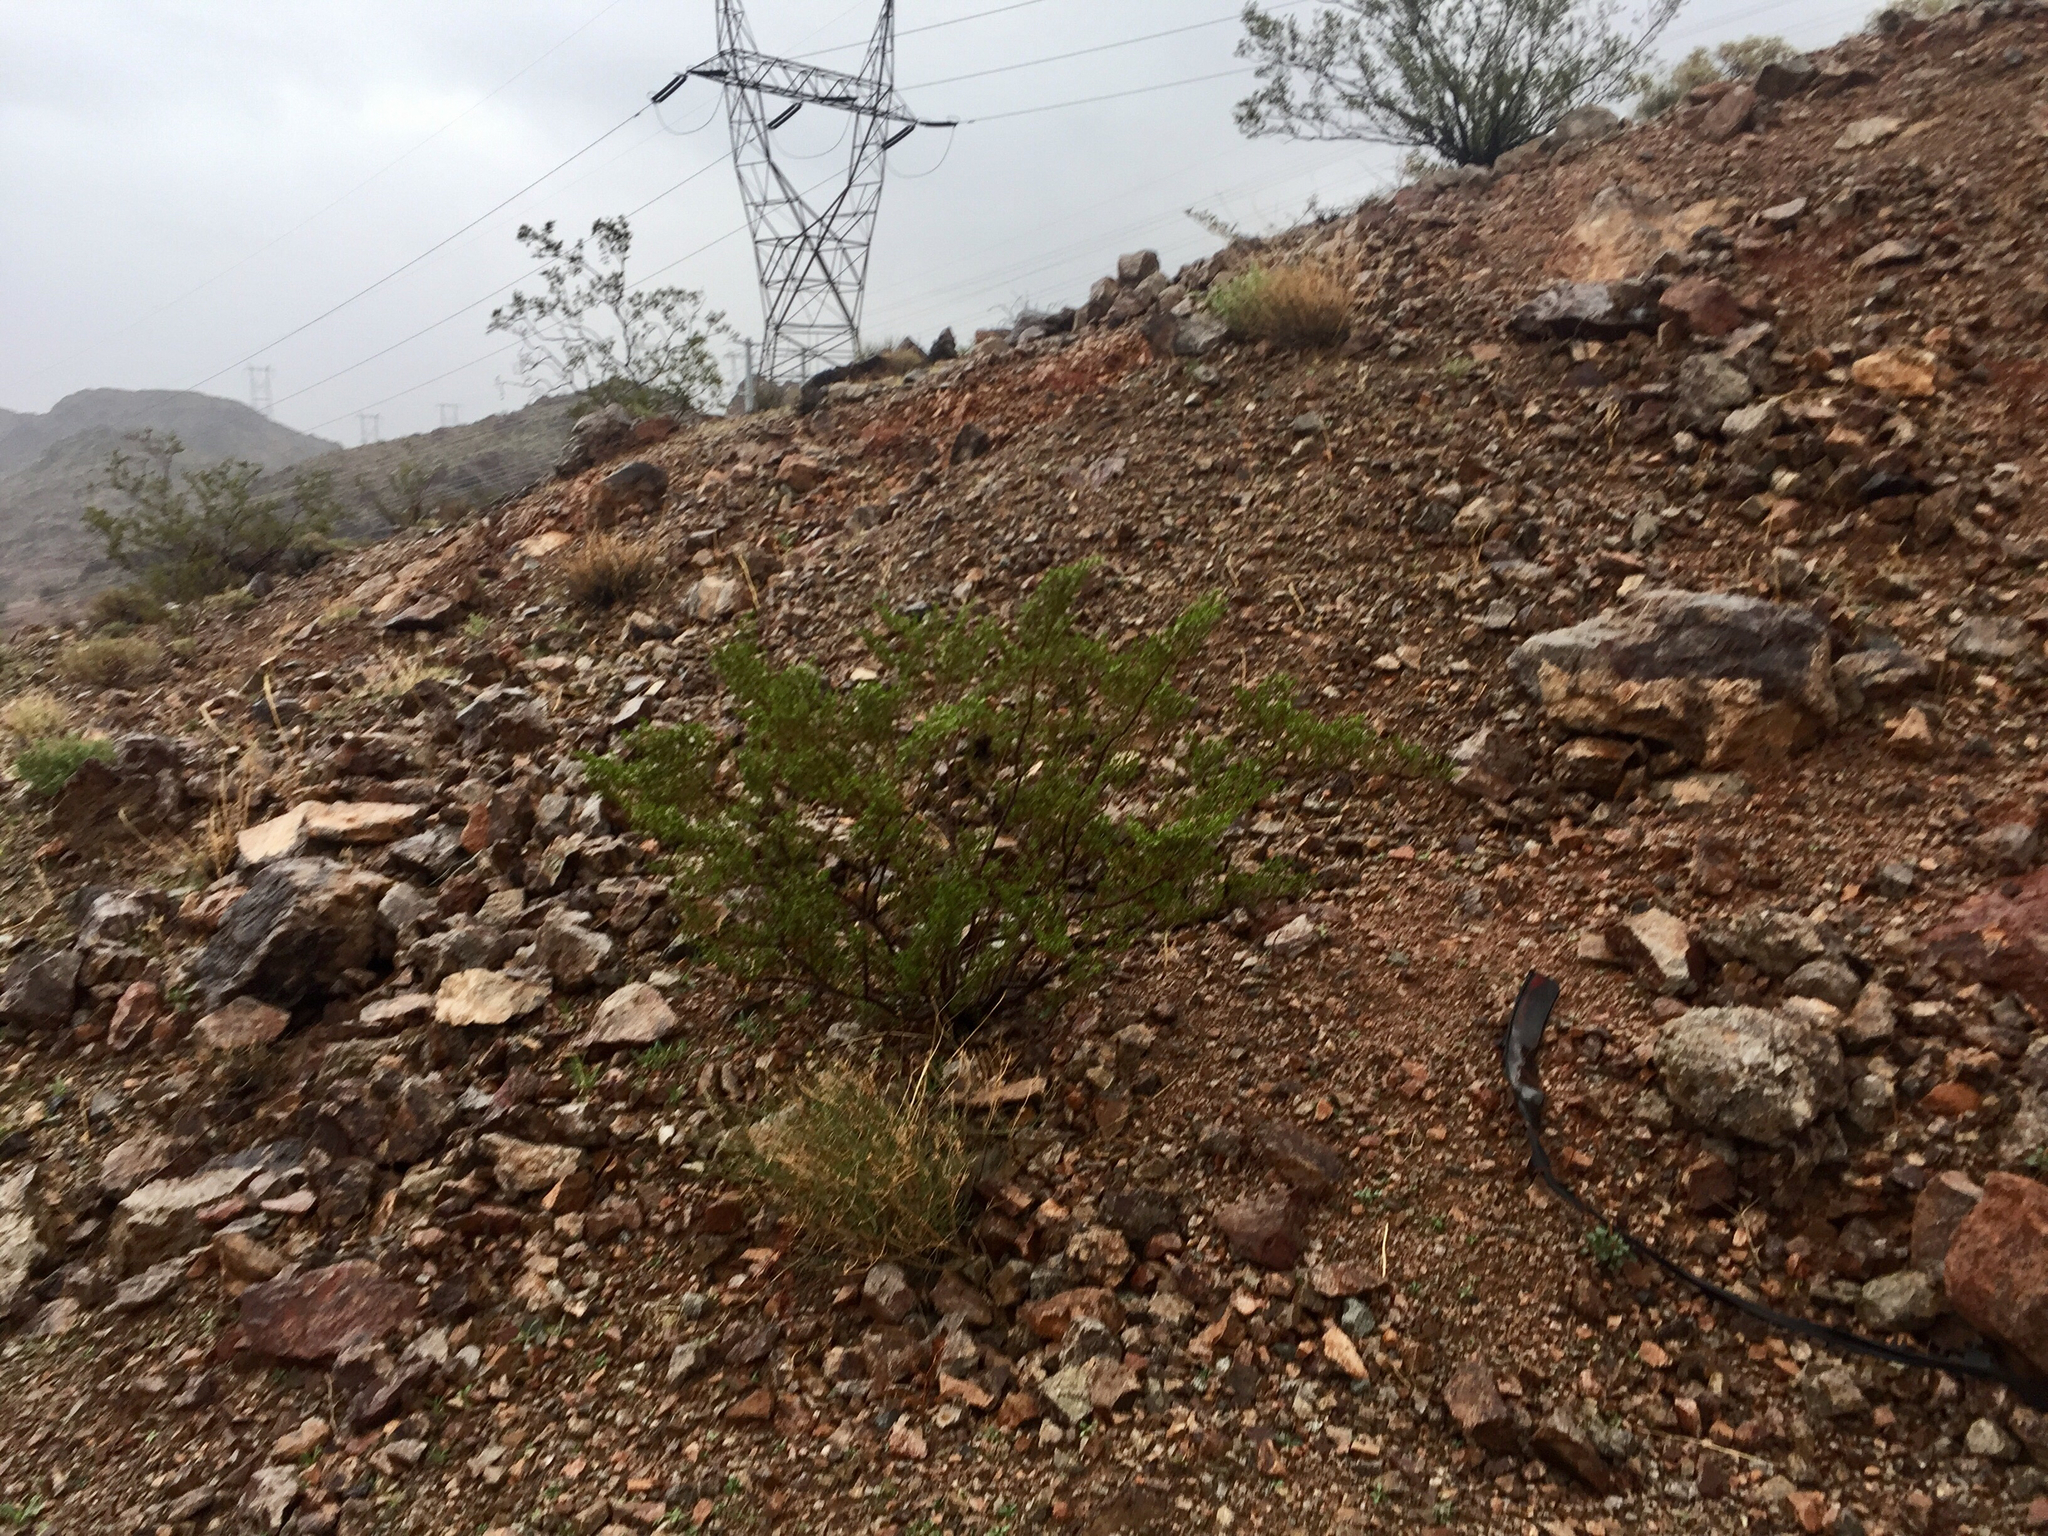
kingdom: Plantae
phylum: Tracheophyta
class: Magnoliopsida
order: Zygophyllales
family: Zygophyllaceae
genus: Larrea
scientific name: Larrea tridentata
